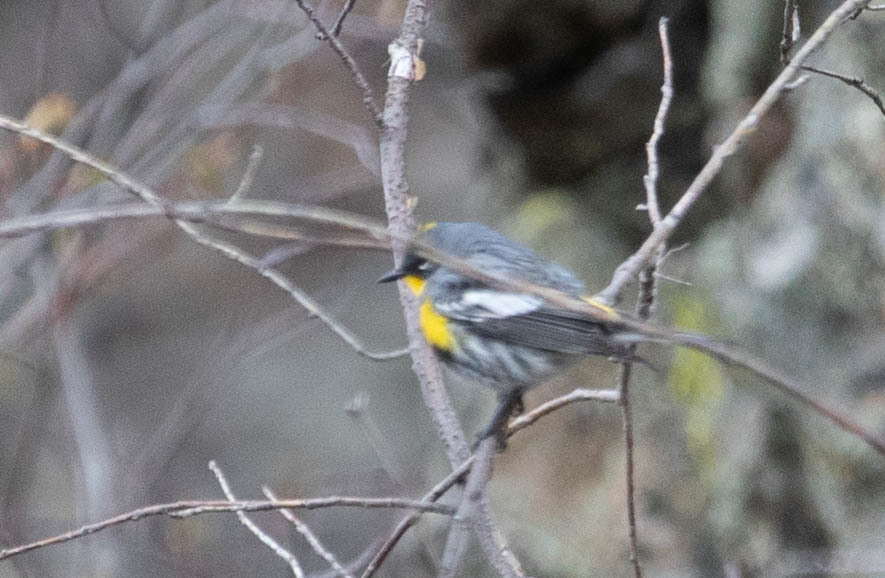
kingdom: Animalia
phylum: Chordata
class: Aves
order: Passeriformes
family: Parulidae
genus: Setophaga
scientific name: Setophaga auduboni
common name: Audubon's warbler
